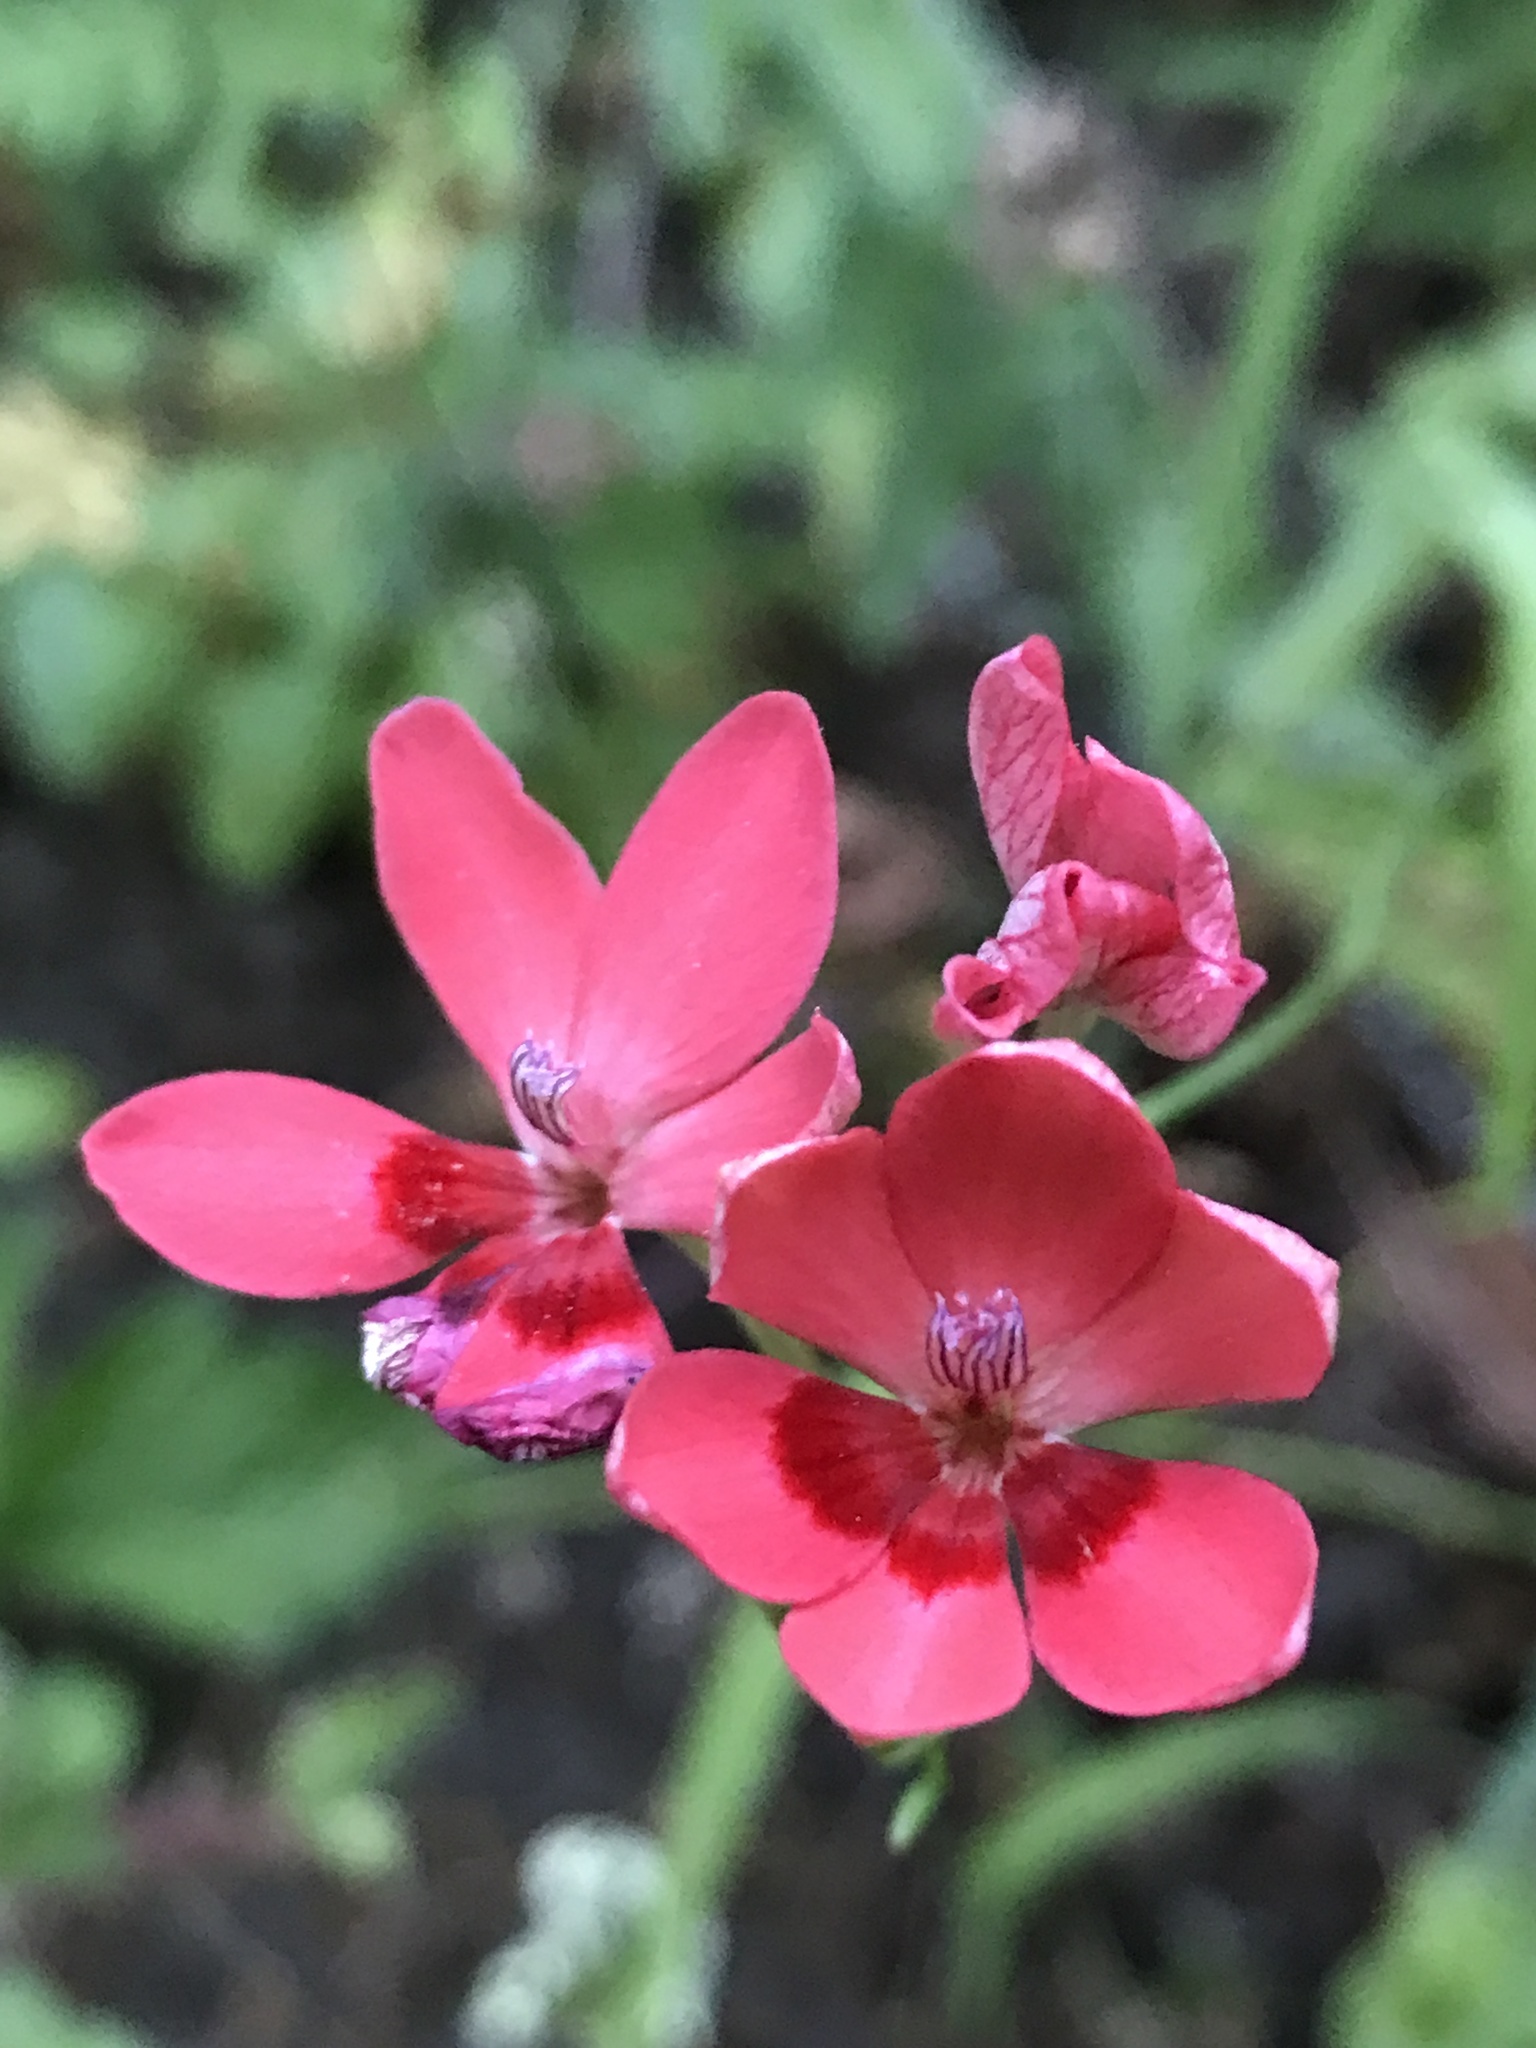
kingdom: Plantae
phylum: Tracheophyta
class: Liliopsida
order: Asparagales
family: Iridaceae
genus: Freesia
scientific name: Freesia laxa
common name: False freesia
